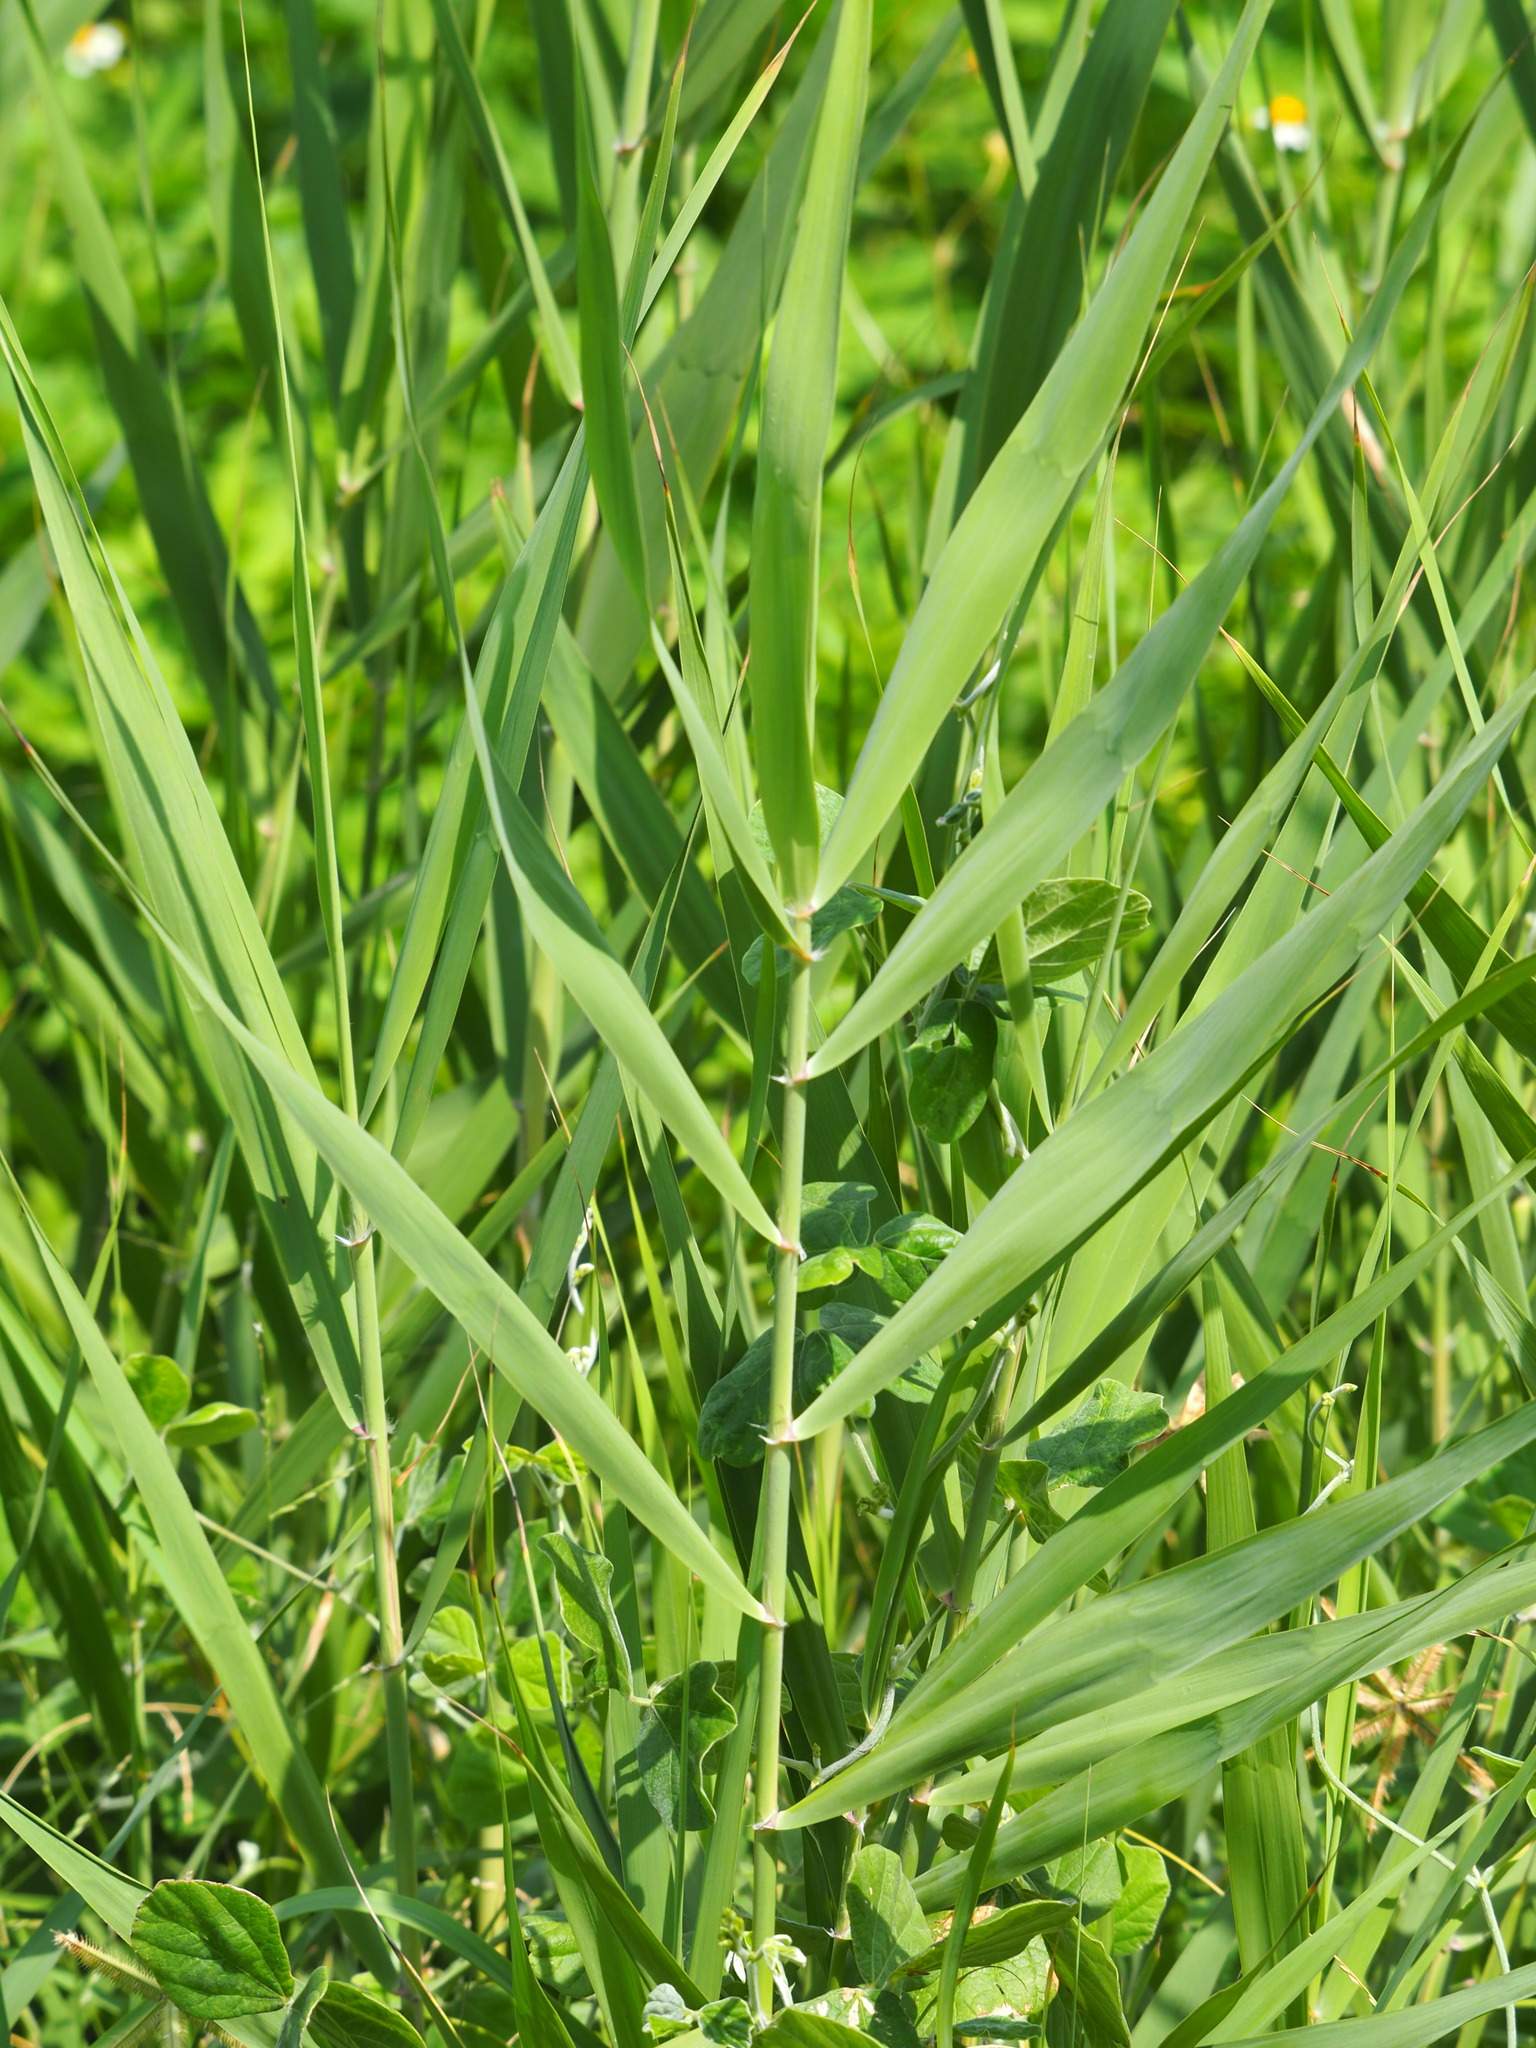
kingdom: Plantae
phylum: Tracheophyta
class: Liliopsida
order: Poales
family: Poaceae
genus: Phragmites
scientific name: Phragmites australis
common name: Common reed
